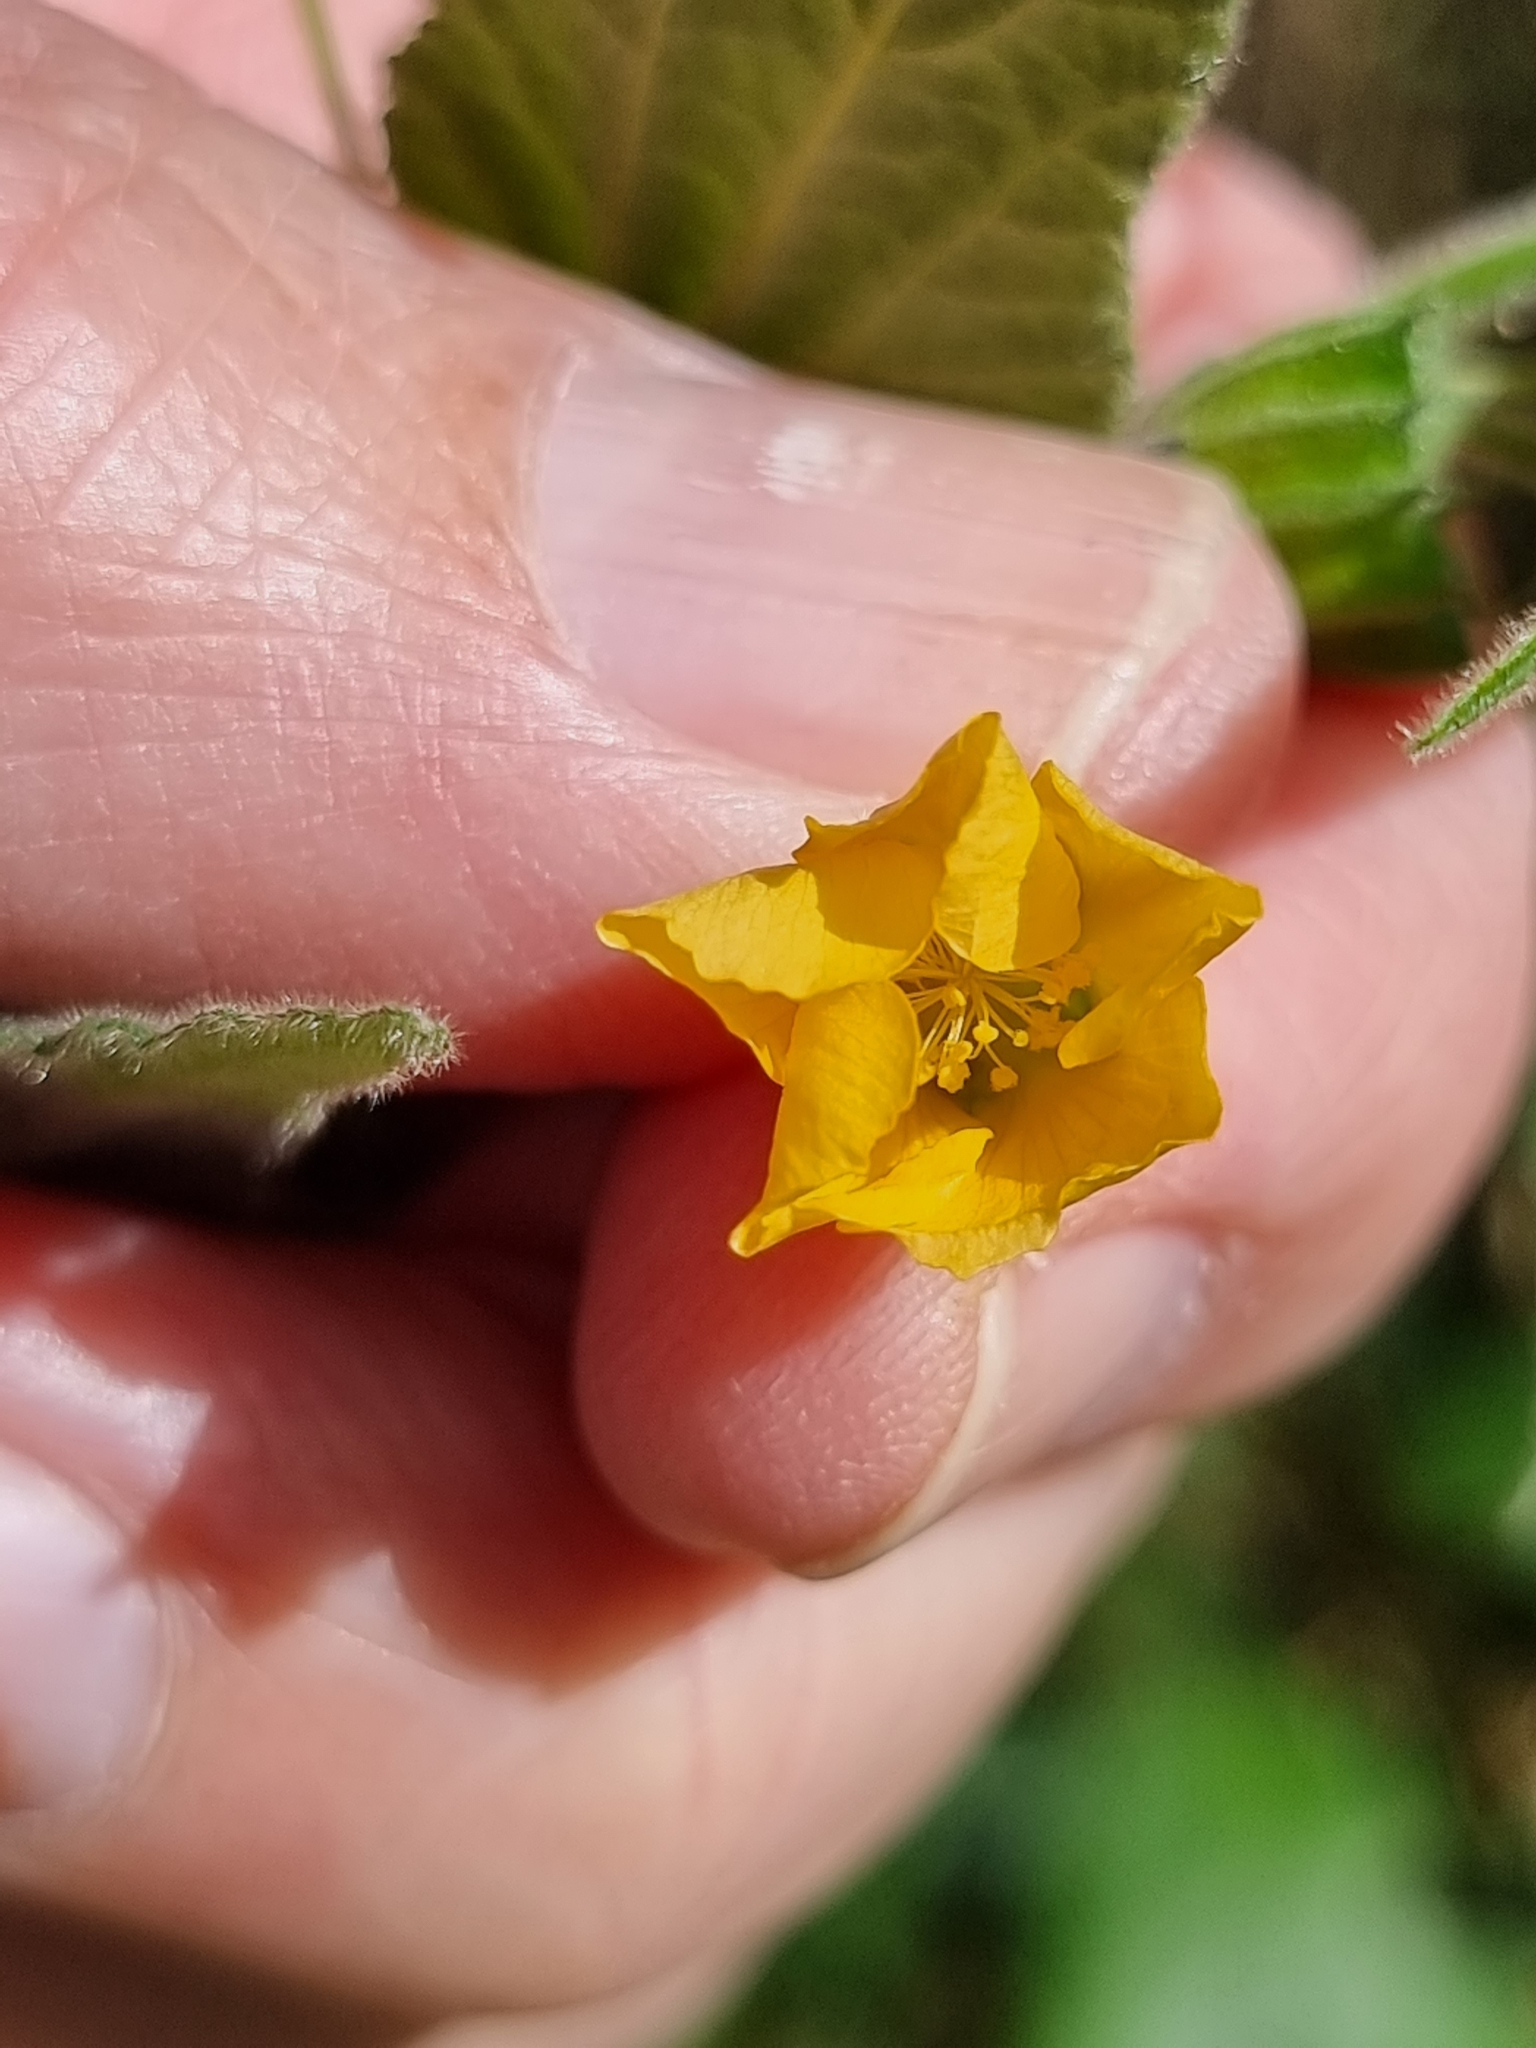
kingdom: Plantae
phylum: Tracheophyta
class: Magnoliopsida
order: Malvales
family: Malvaceae
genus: Abutilon
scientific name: Abutilon oxycarpum
